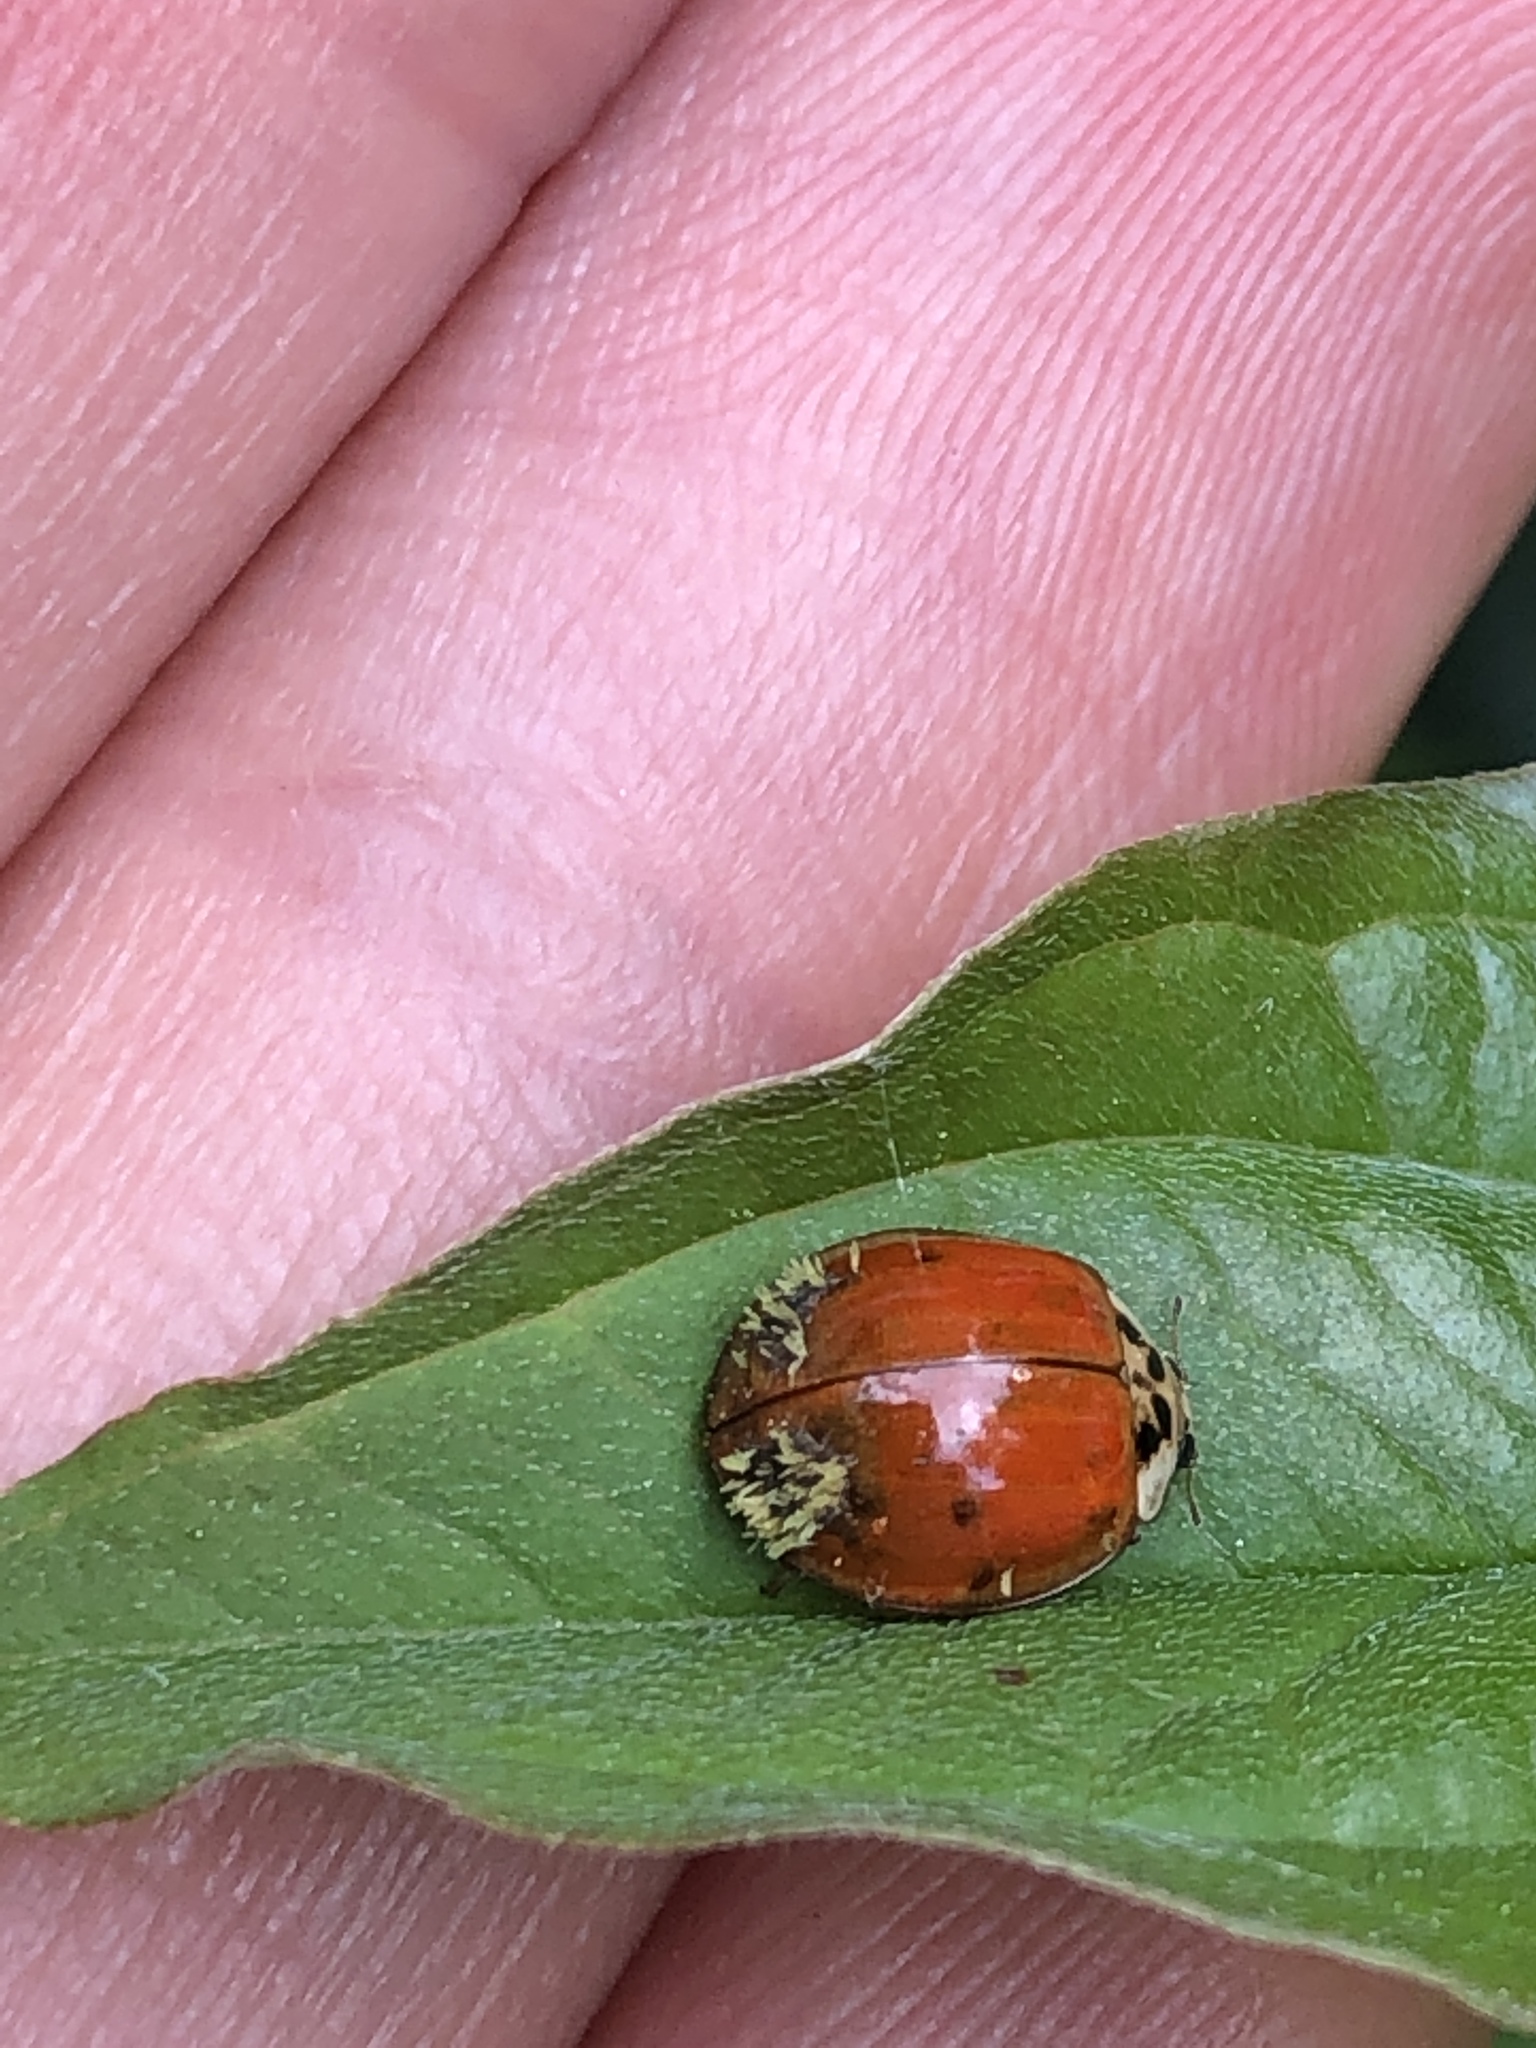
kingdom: Fungi
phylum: Ascomycota
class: Laboulbeniomycetes
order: Laboulbeniales
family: Laboulbeniaceae
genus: Hesperomyces
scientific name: Hesperomyces harmoniae
